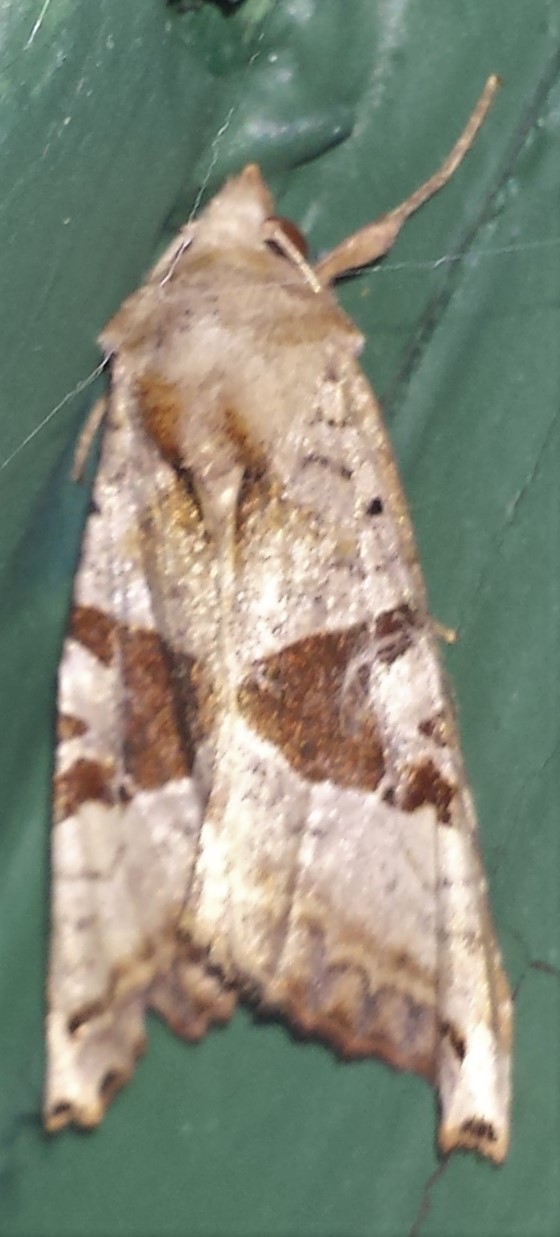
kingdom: Animalia
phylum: Arthropoda
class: Insecta
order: Lepidoptera
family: Noctuidae
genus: Phlogophora
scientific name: Phlogophora periculosa
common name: Brown angle shades
